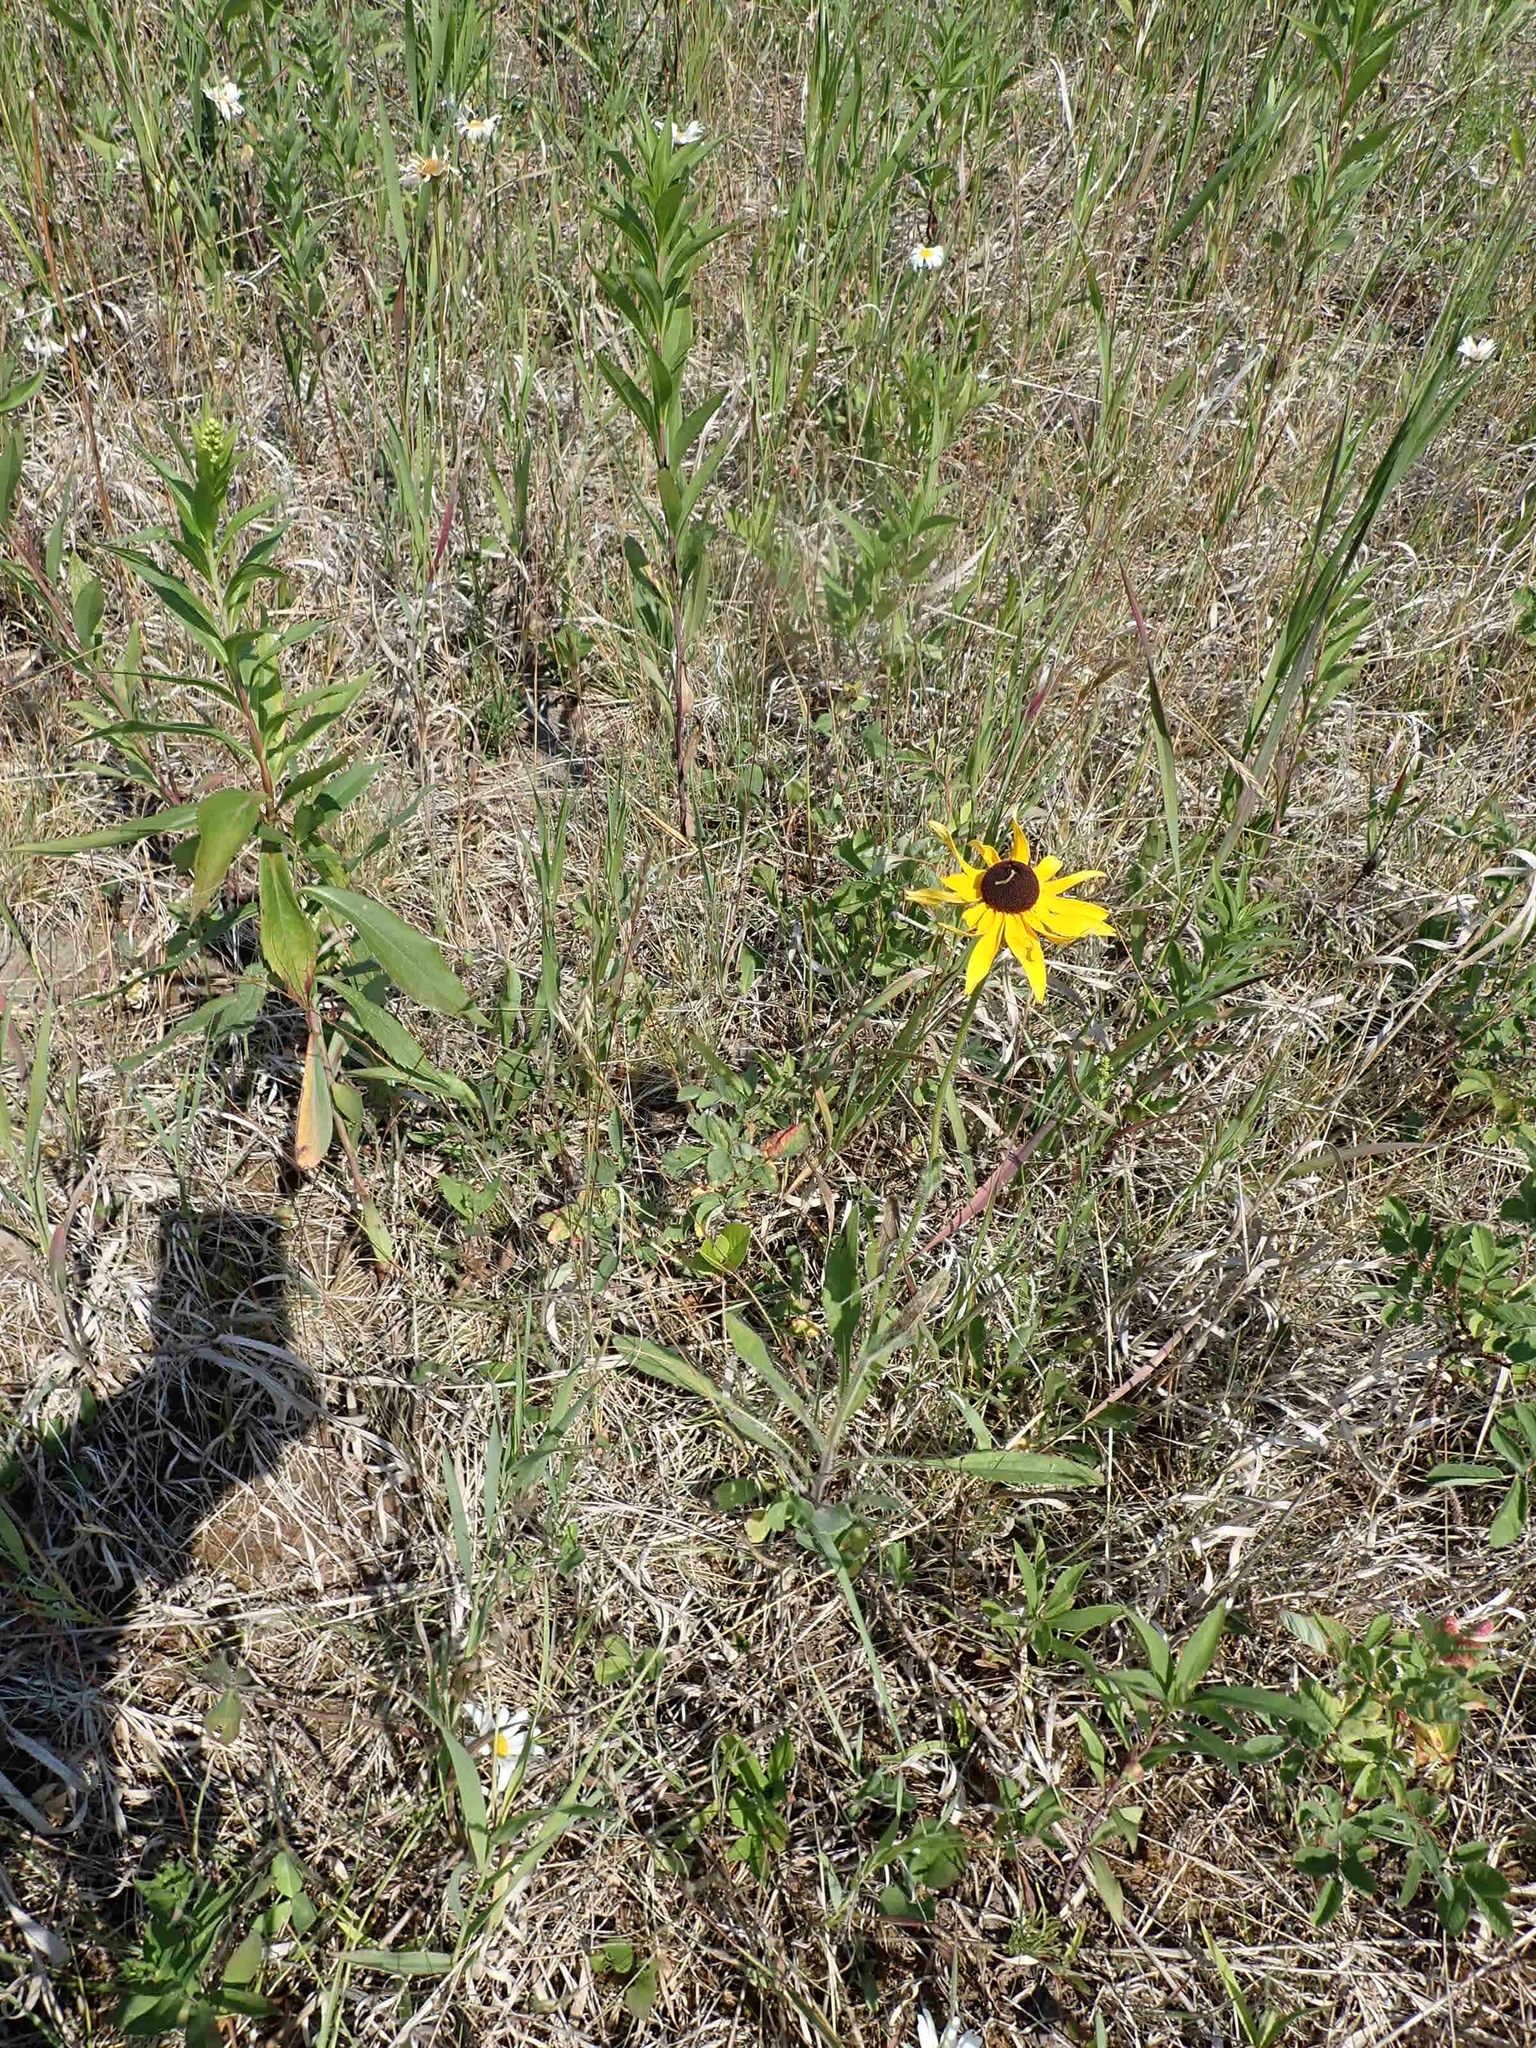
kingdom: Plantae
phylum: Tracheophyta
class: Magnoliopsida
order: Asterales
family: Asteraceae
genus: Rudbeckia
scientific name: Rudbeckia hirta
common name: Black-eyed-susan
